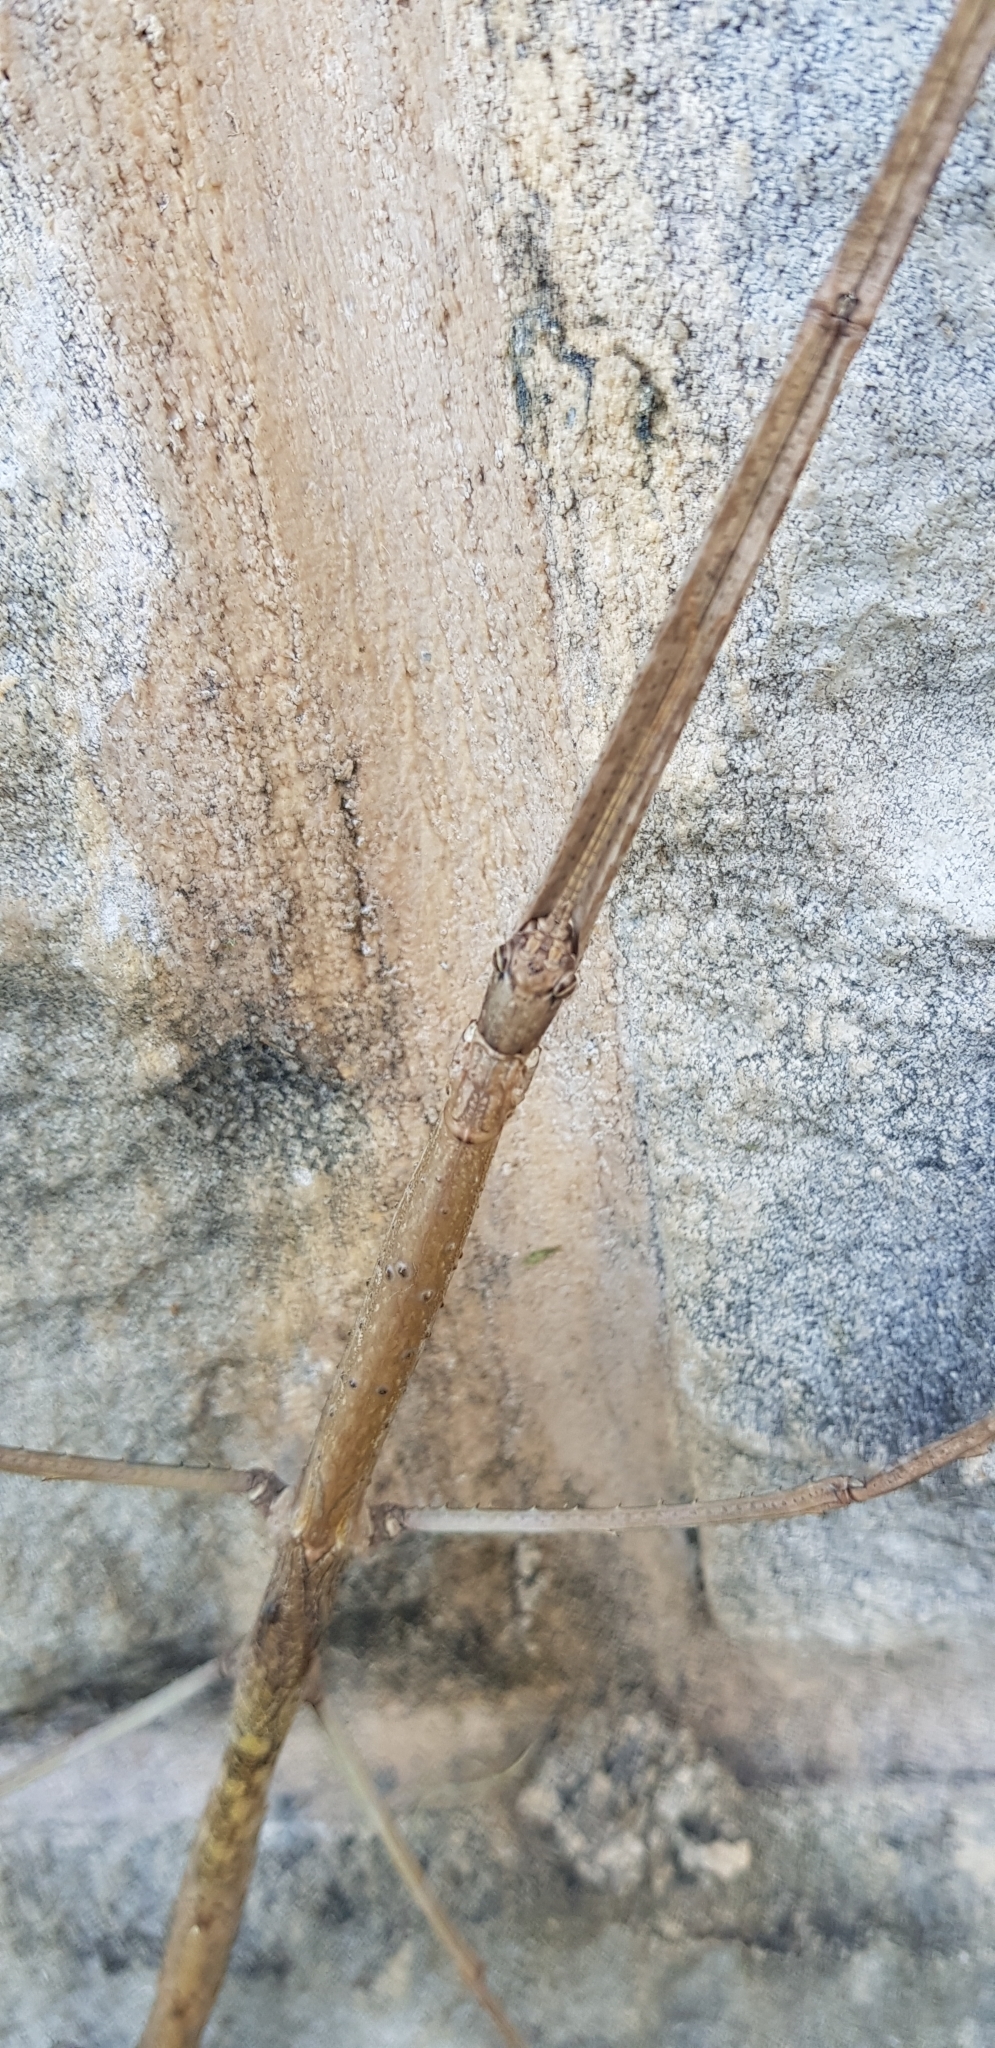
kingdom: Animalia
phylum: Arthropoda
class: Insecta
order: Phasmida
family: Phasmatidae
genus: Ctenomorpha
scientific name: Ctenomorpha marginipennis
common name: Margined-winged stick-insect
